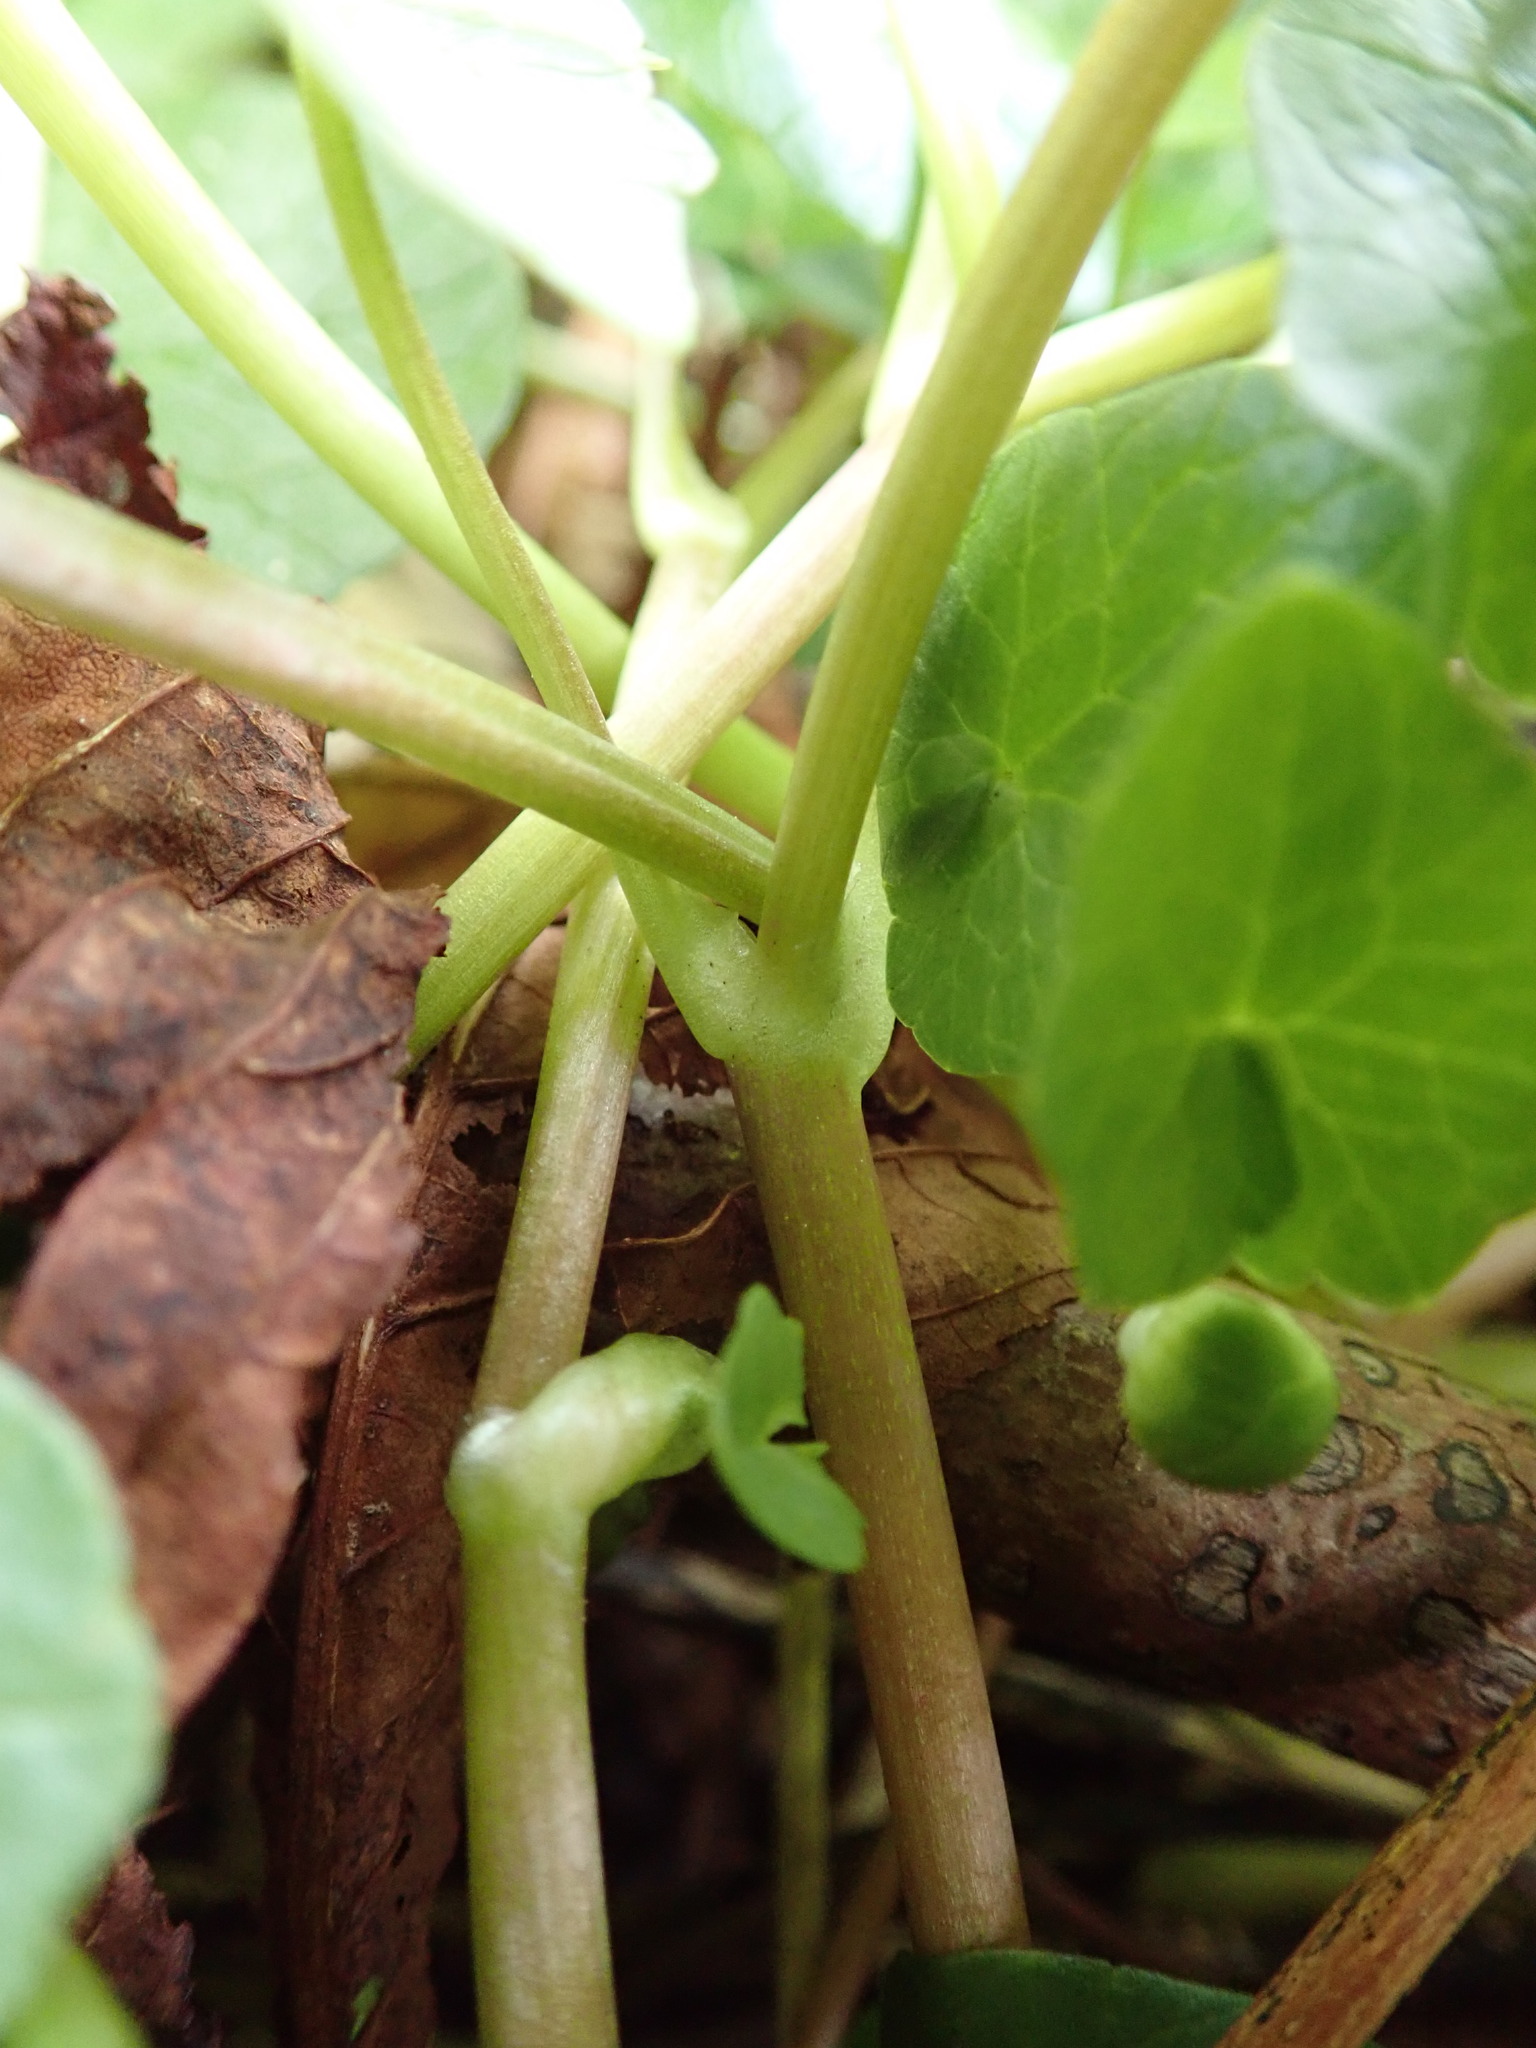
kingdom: Plantae
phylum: Tracheophyta
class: Magnoliopsida
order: Ranunculales
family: Ranunculaceae
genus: Ficaria
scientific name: Ficaria verna
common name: Lesser celandine
